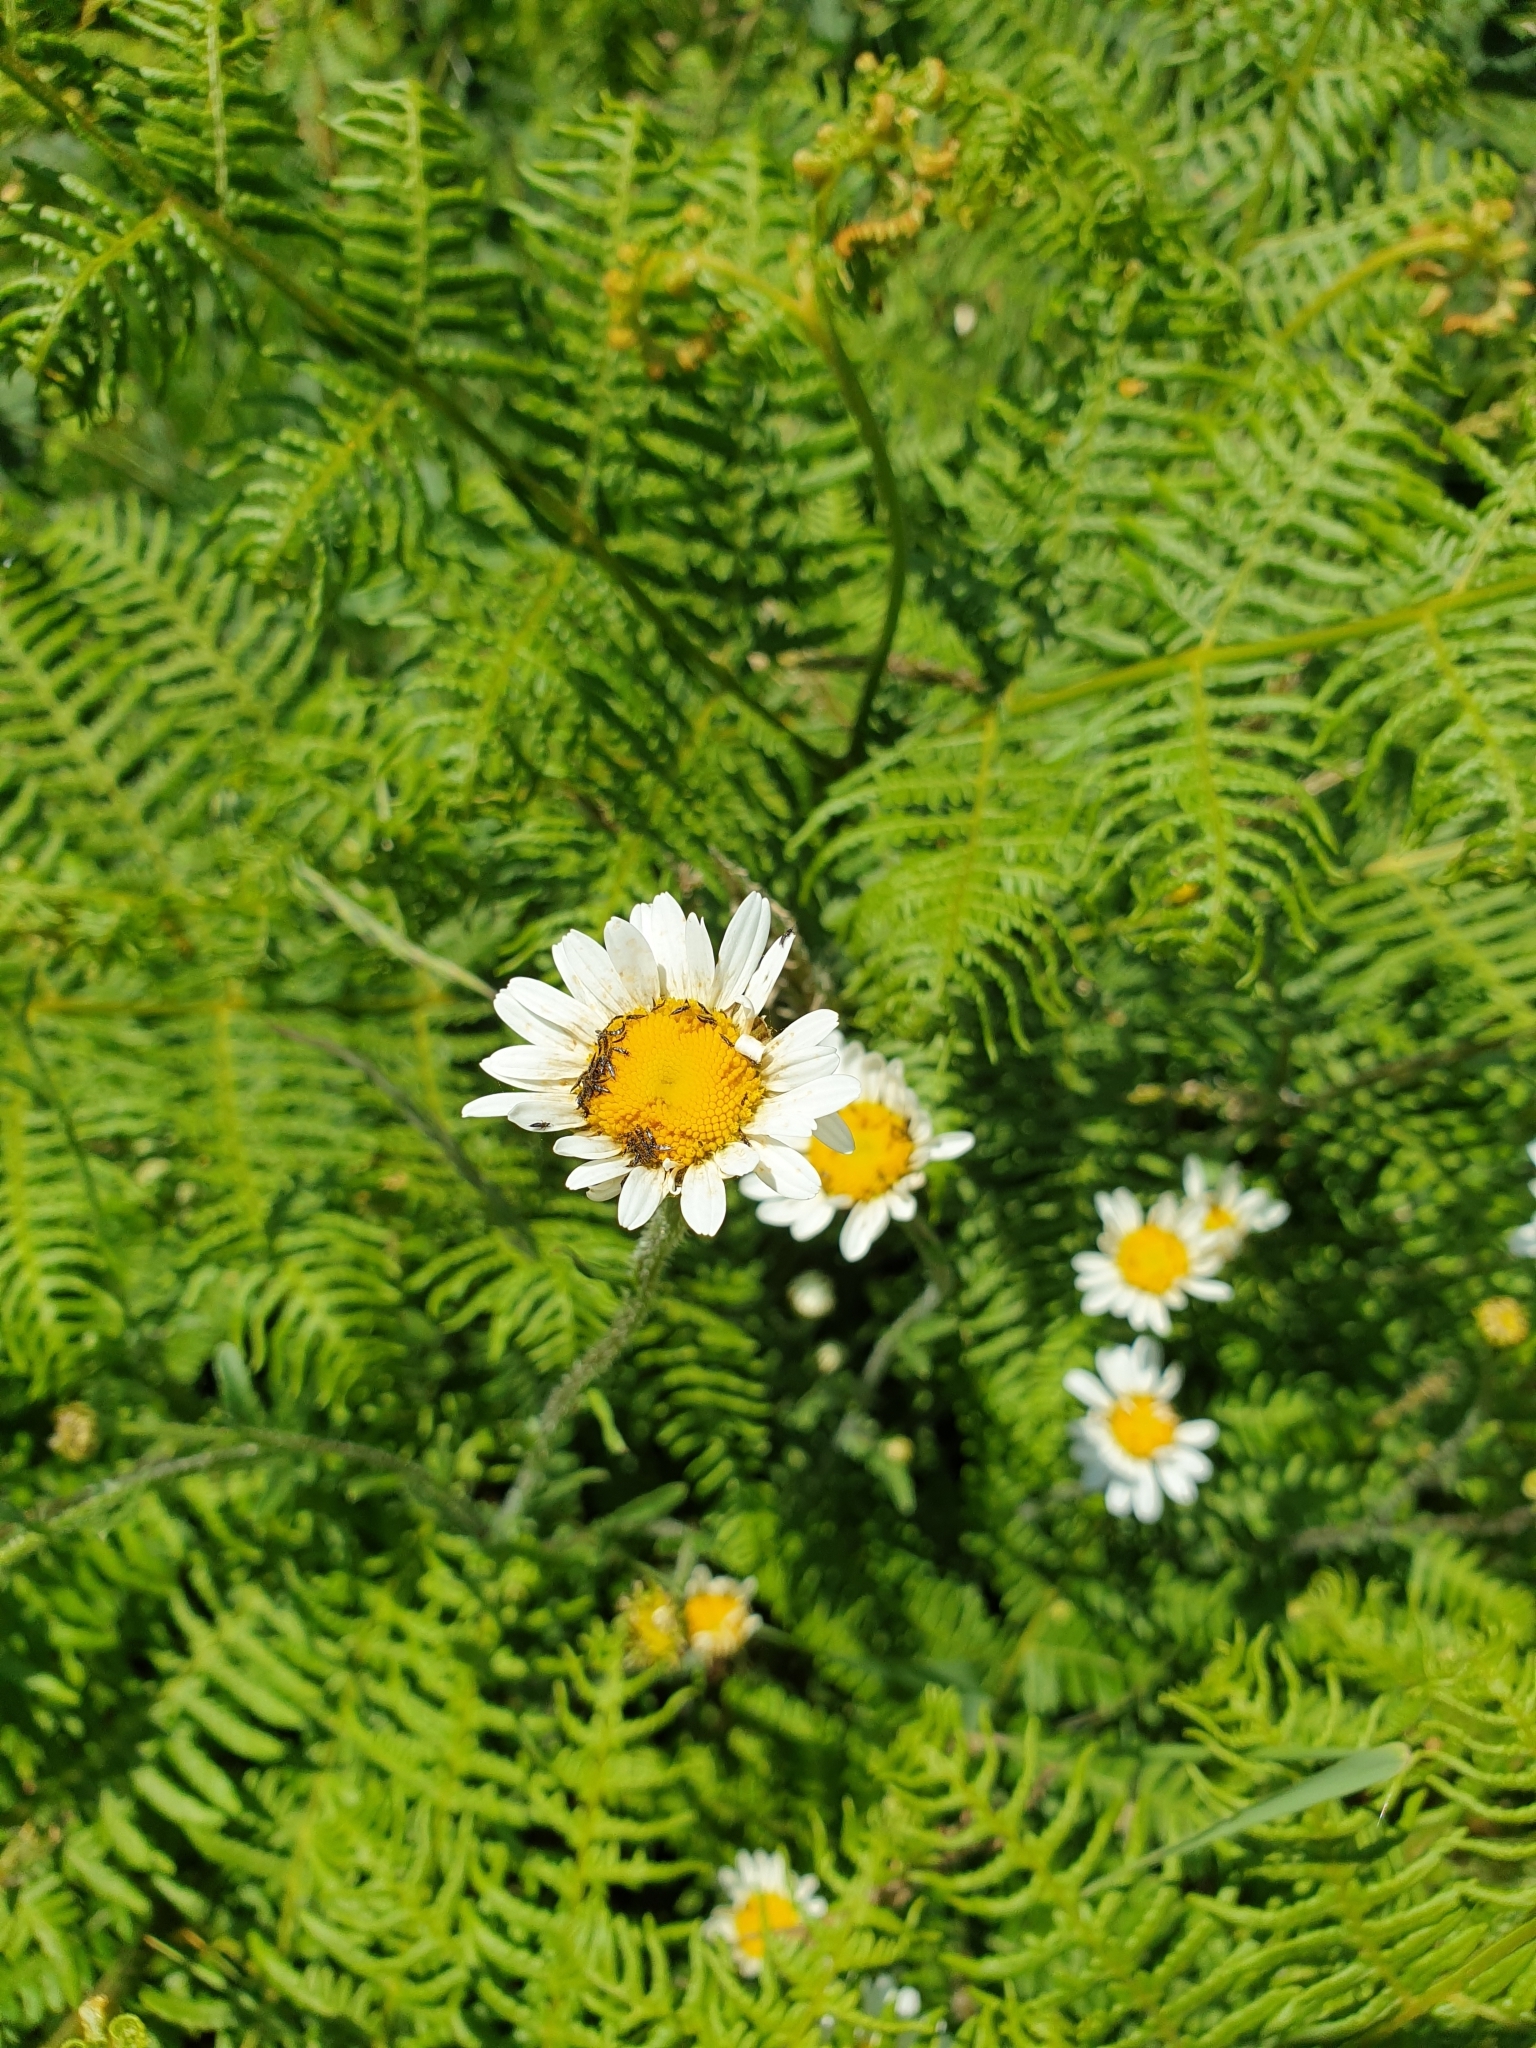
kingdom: Plantae
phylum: Tracheophyta
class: Magnoliopsida
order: Asterales
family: Asteraceae
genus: Leucanthemum
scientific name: Leucanthemum vulgare
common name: Oxeye daisy
